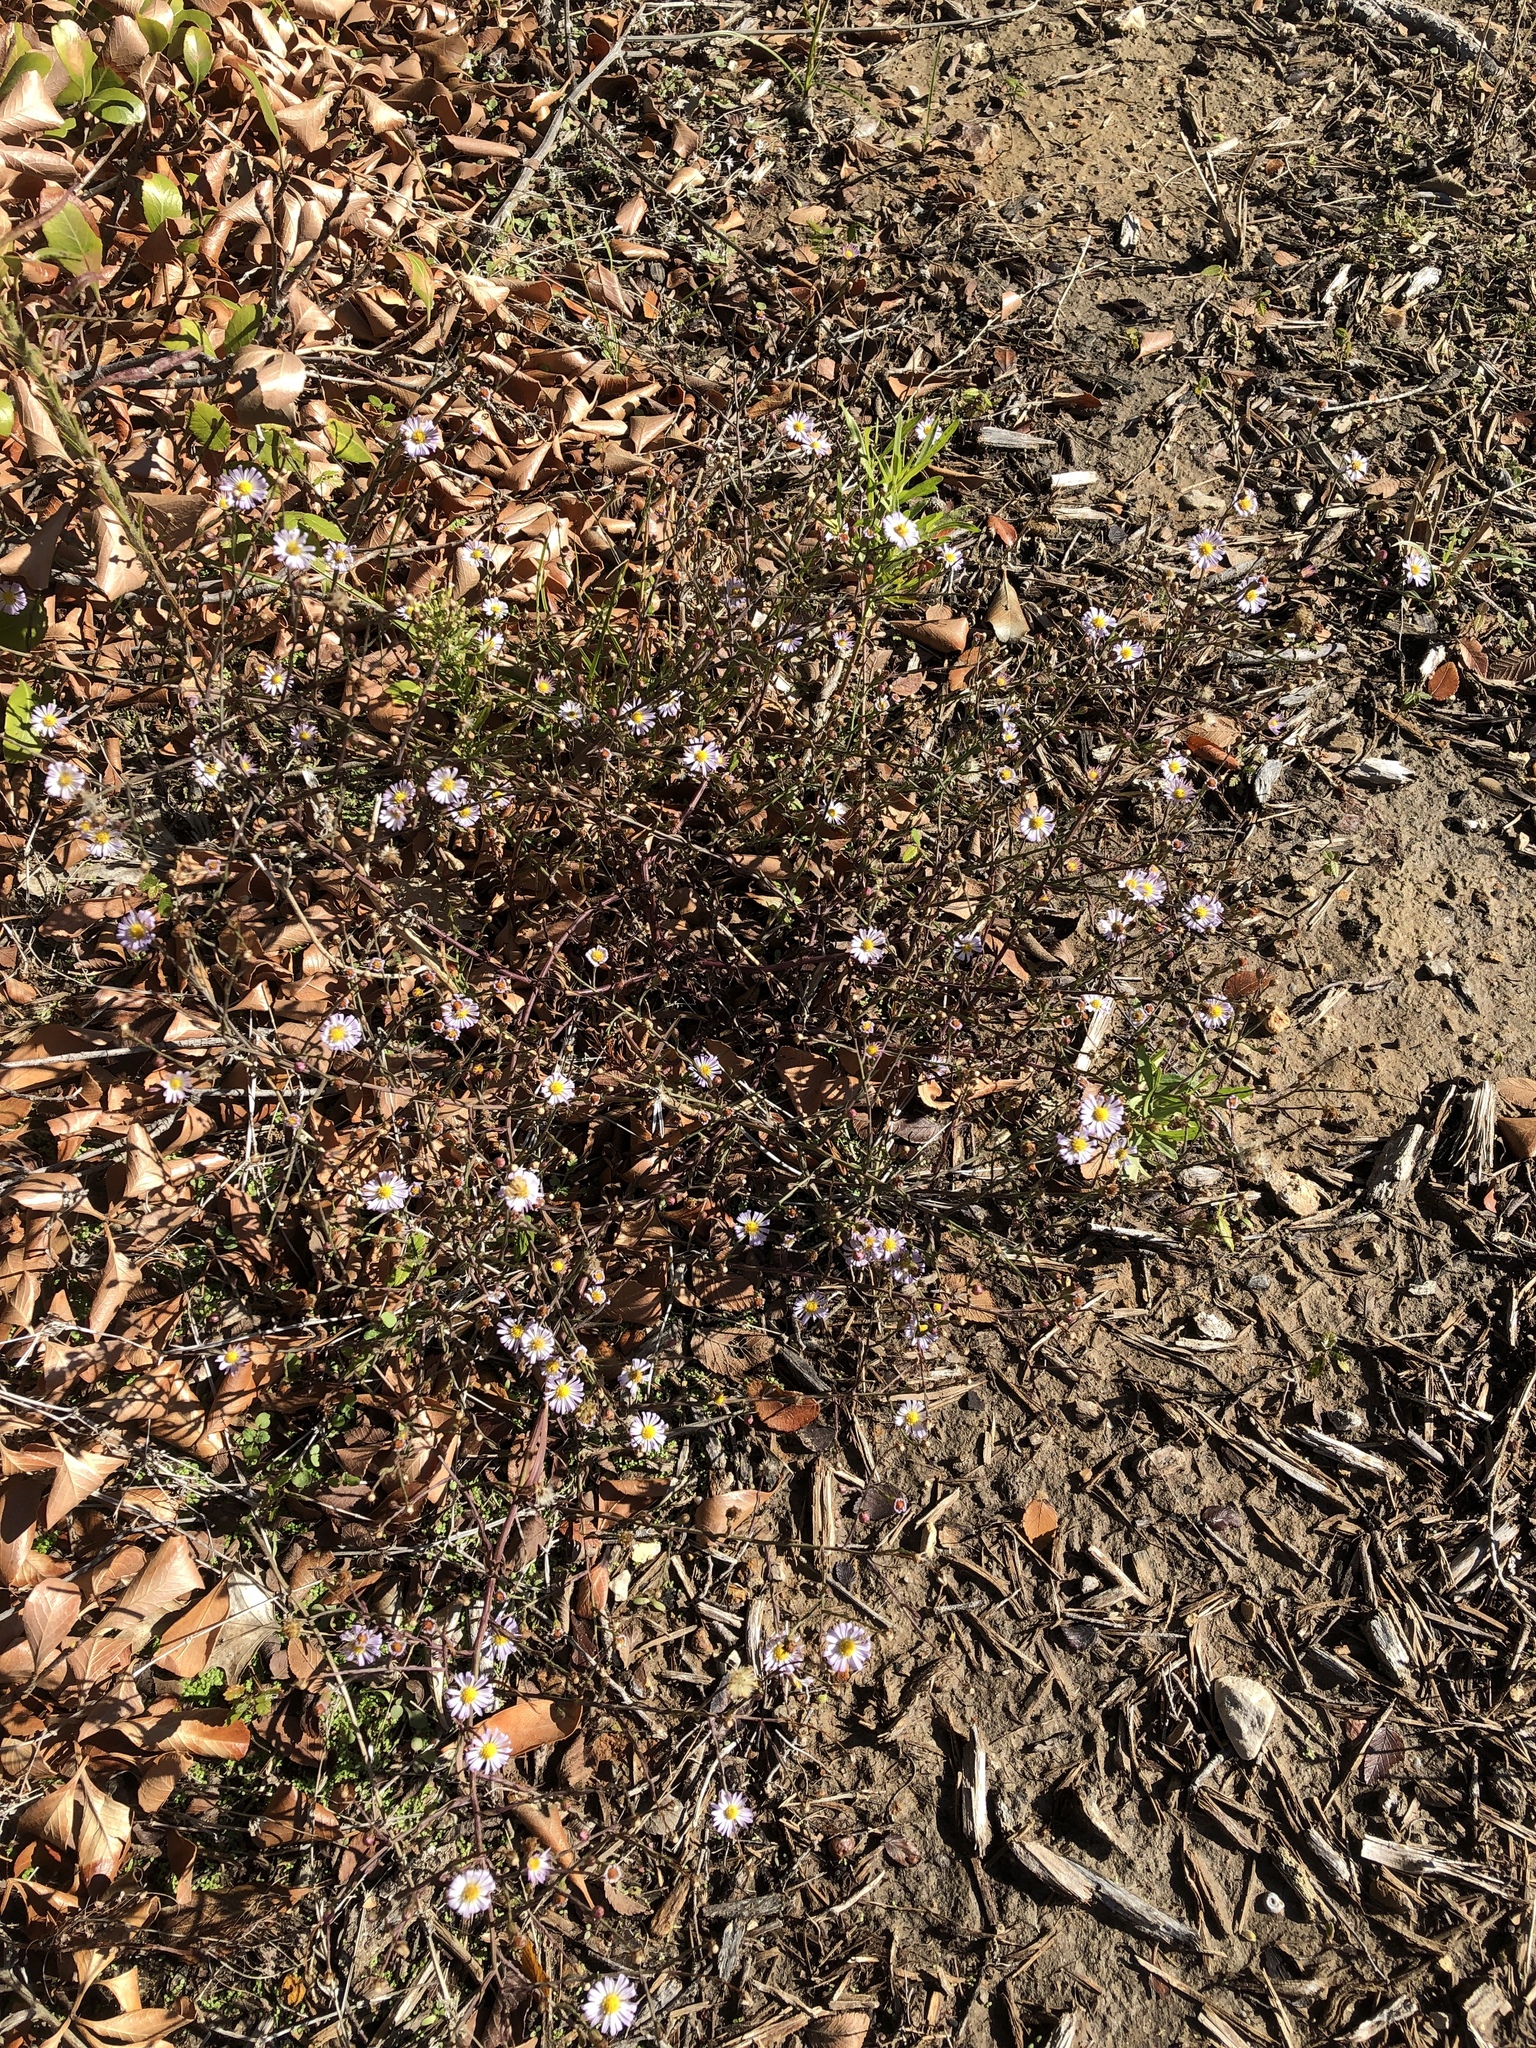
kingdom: Plantae
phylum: Tracheophyta
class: Magnoliopsida
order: Asterales
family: Asteraceae
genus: Symphyotrichum
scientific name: Symphyotrichum divaricatum
